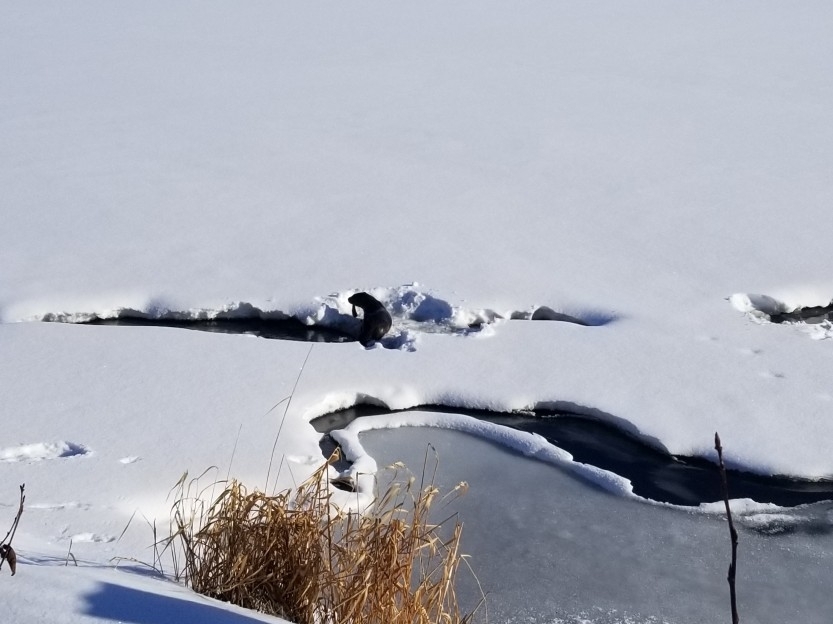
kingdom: Animalia
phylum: Chordata
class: Mammalia
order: Carnivora
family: Mustelidae
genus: Lontra
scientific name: Lontra canadensis
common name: North american river otter
